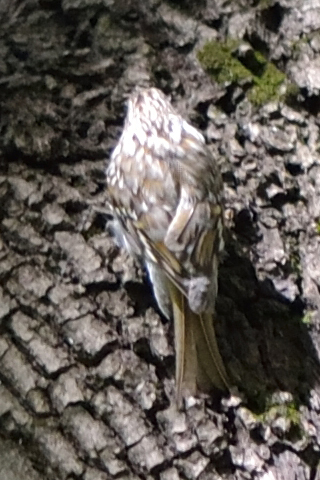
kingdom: Animalia
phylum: Chordata
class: Aves
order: Passeriformes
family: Certhiidae
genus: Certhia
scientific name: Certhia familiaris
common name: Eurasian treecreeper
